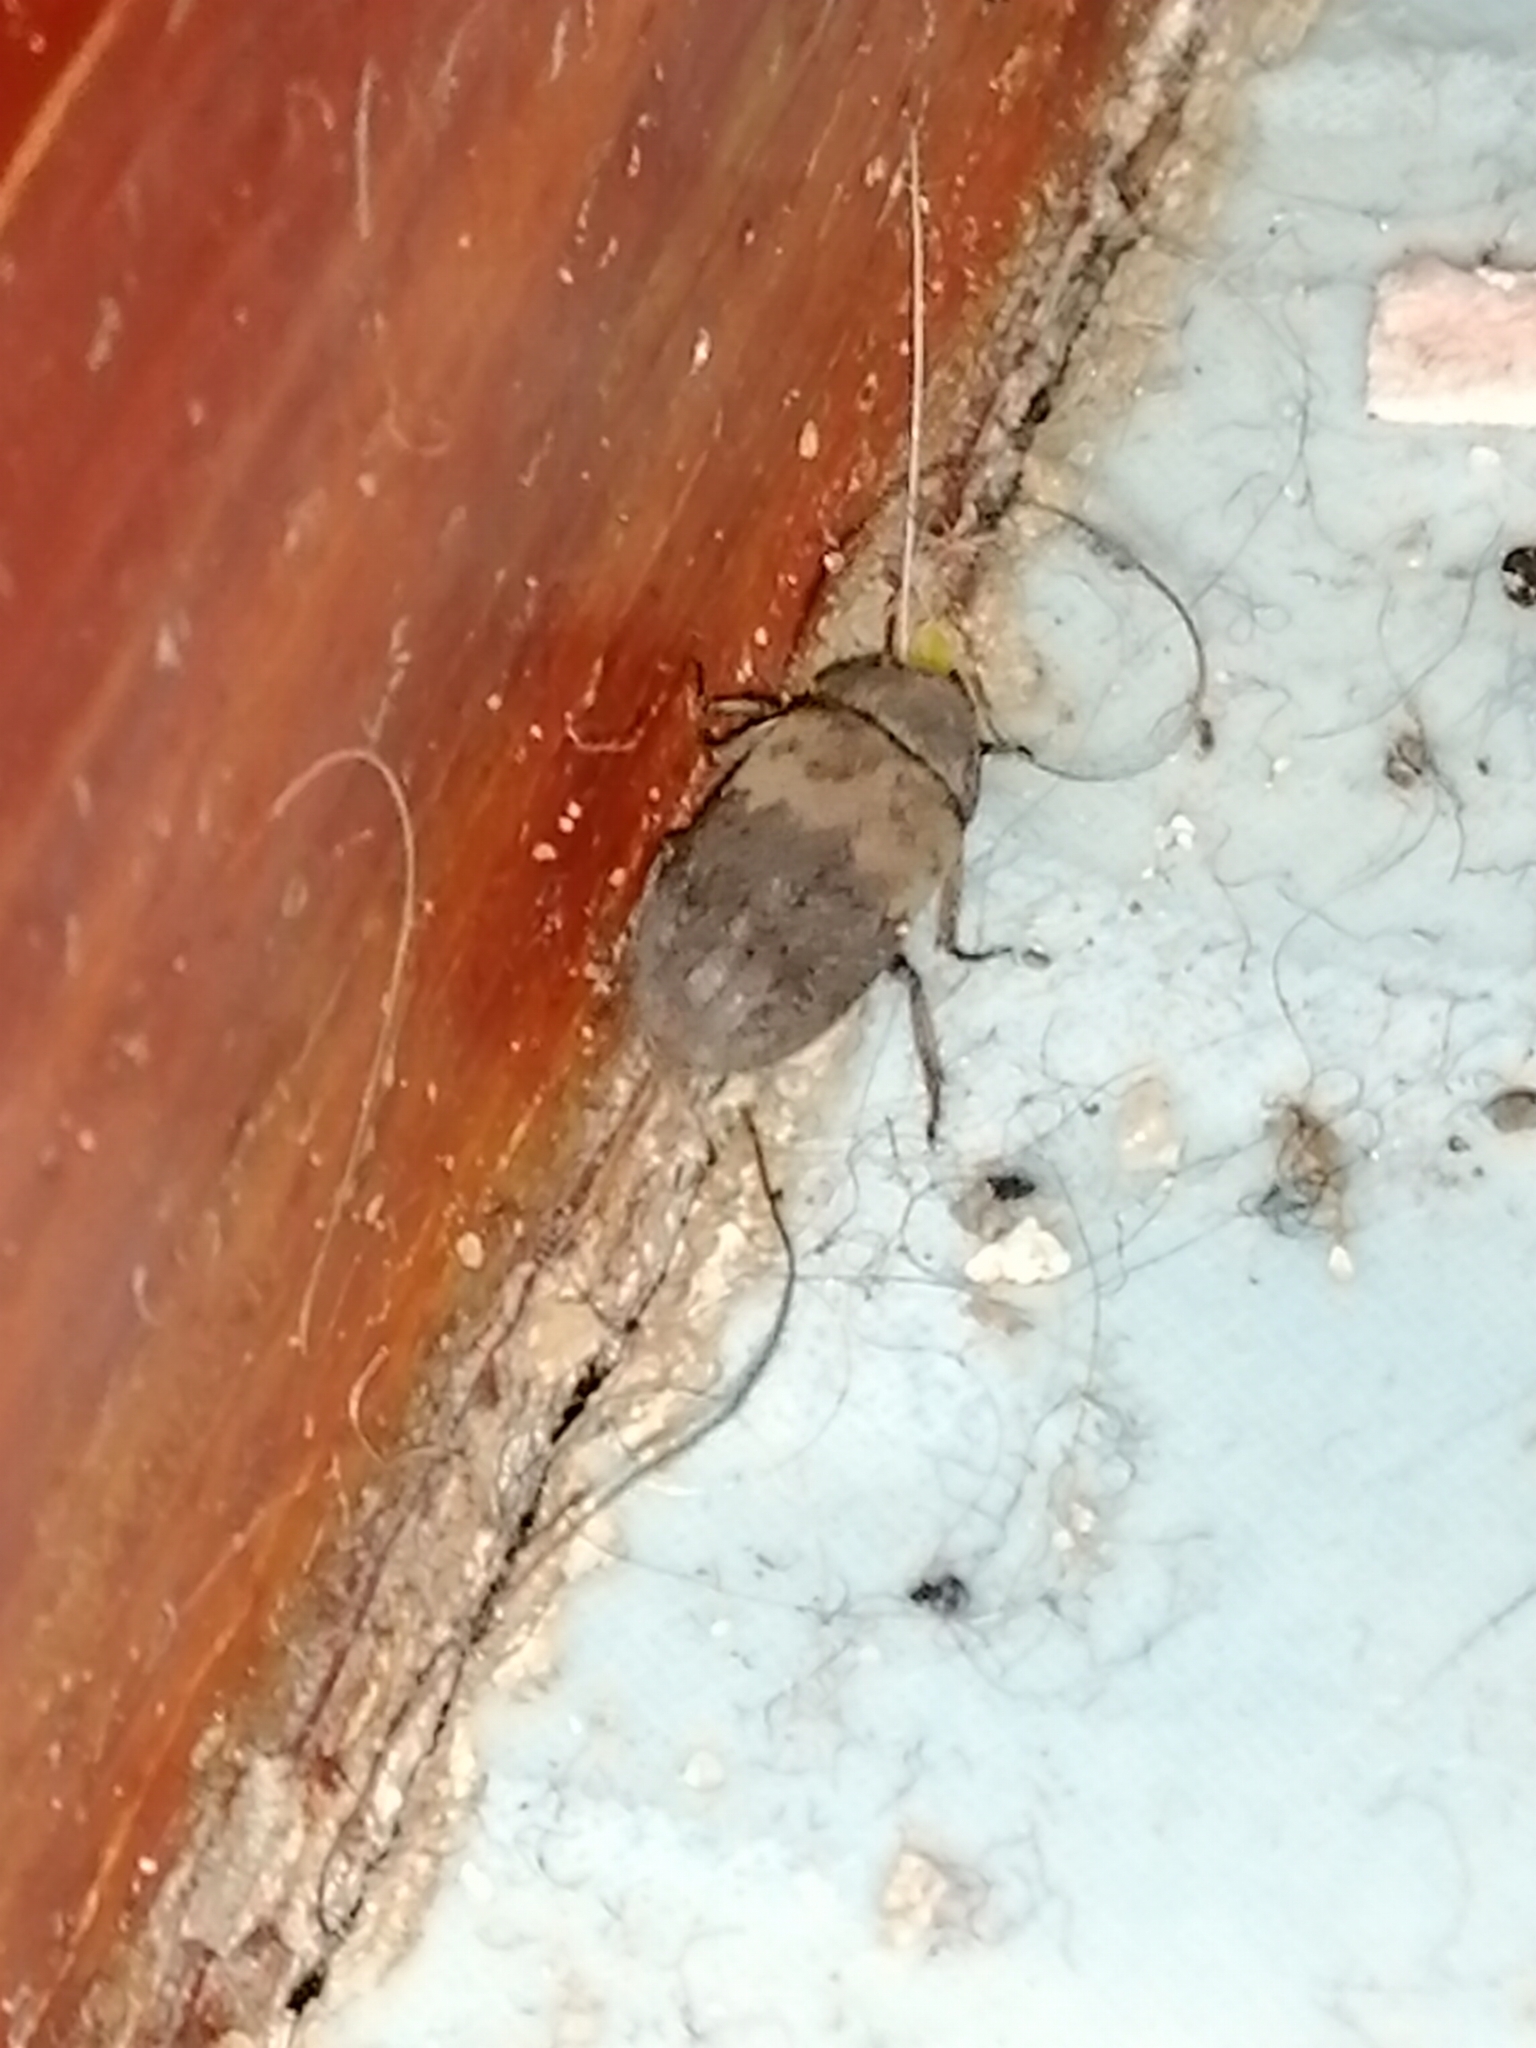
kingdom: Animalia
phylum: Arthropoda
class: Insecta
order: Coleoptera
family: Dermestidae
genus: Dermestes
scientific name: Dermestes lardarius
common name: Larder beetle
